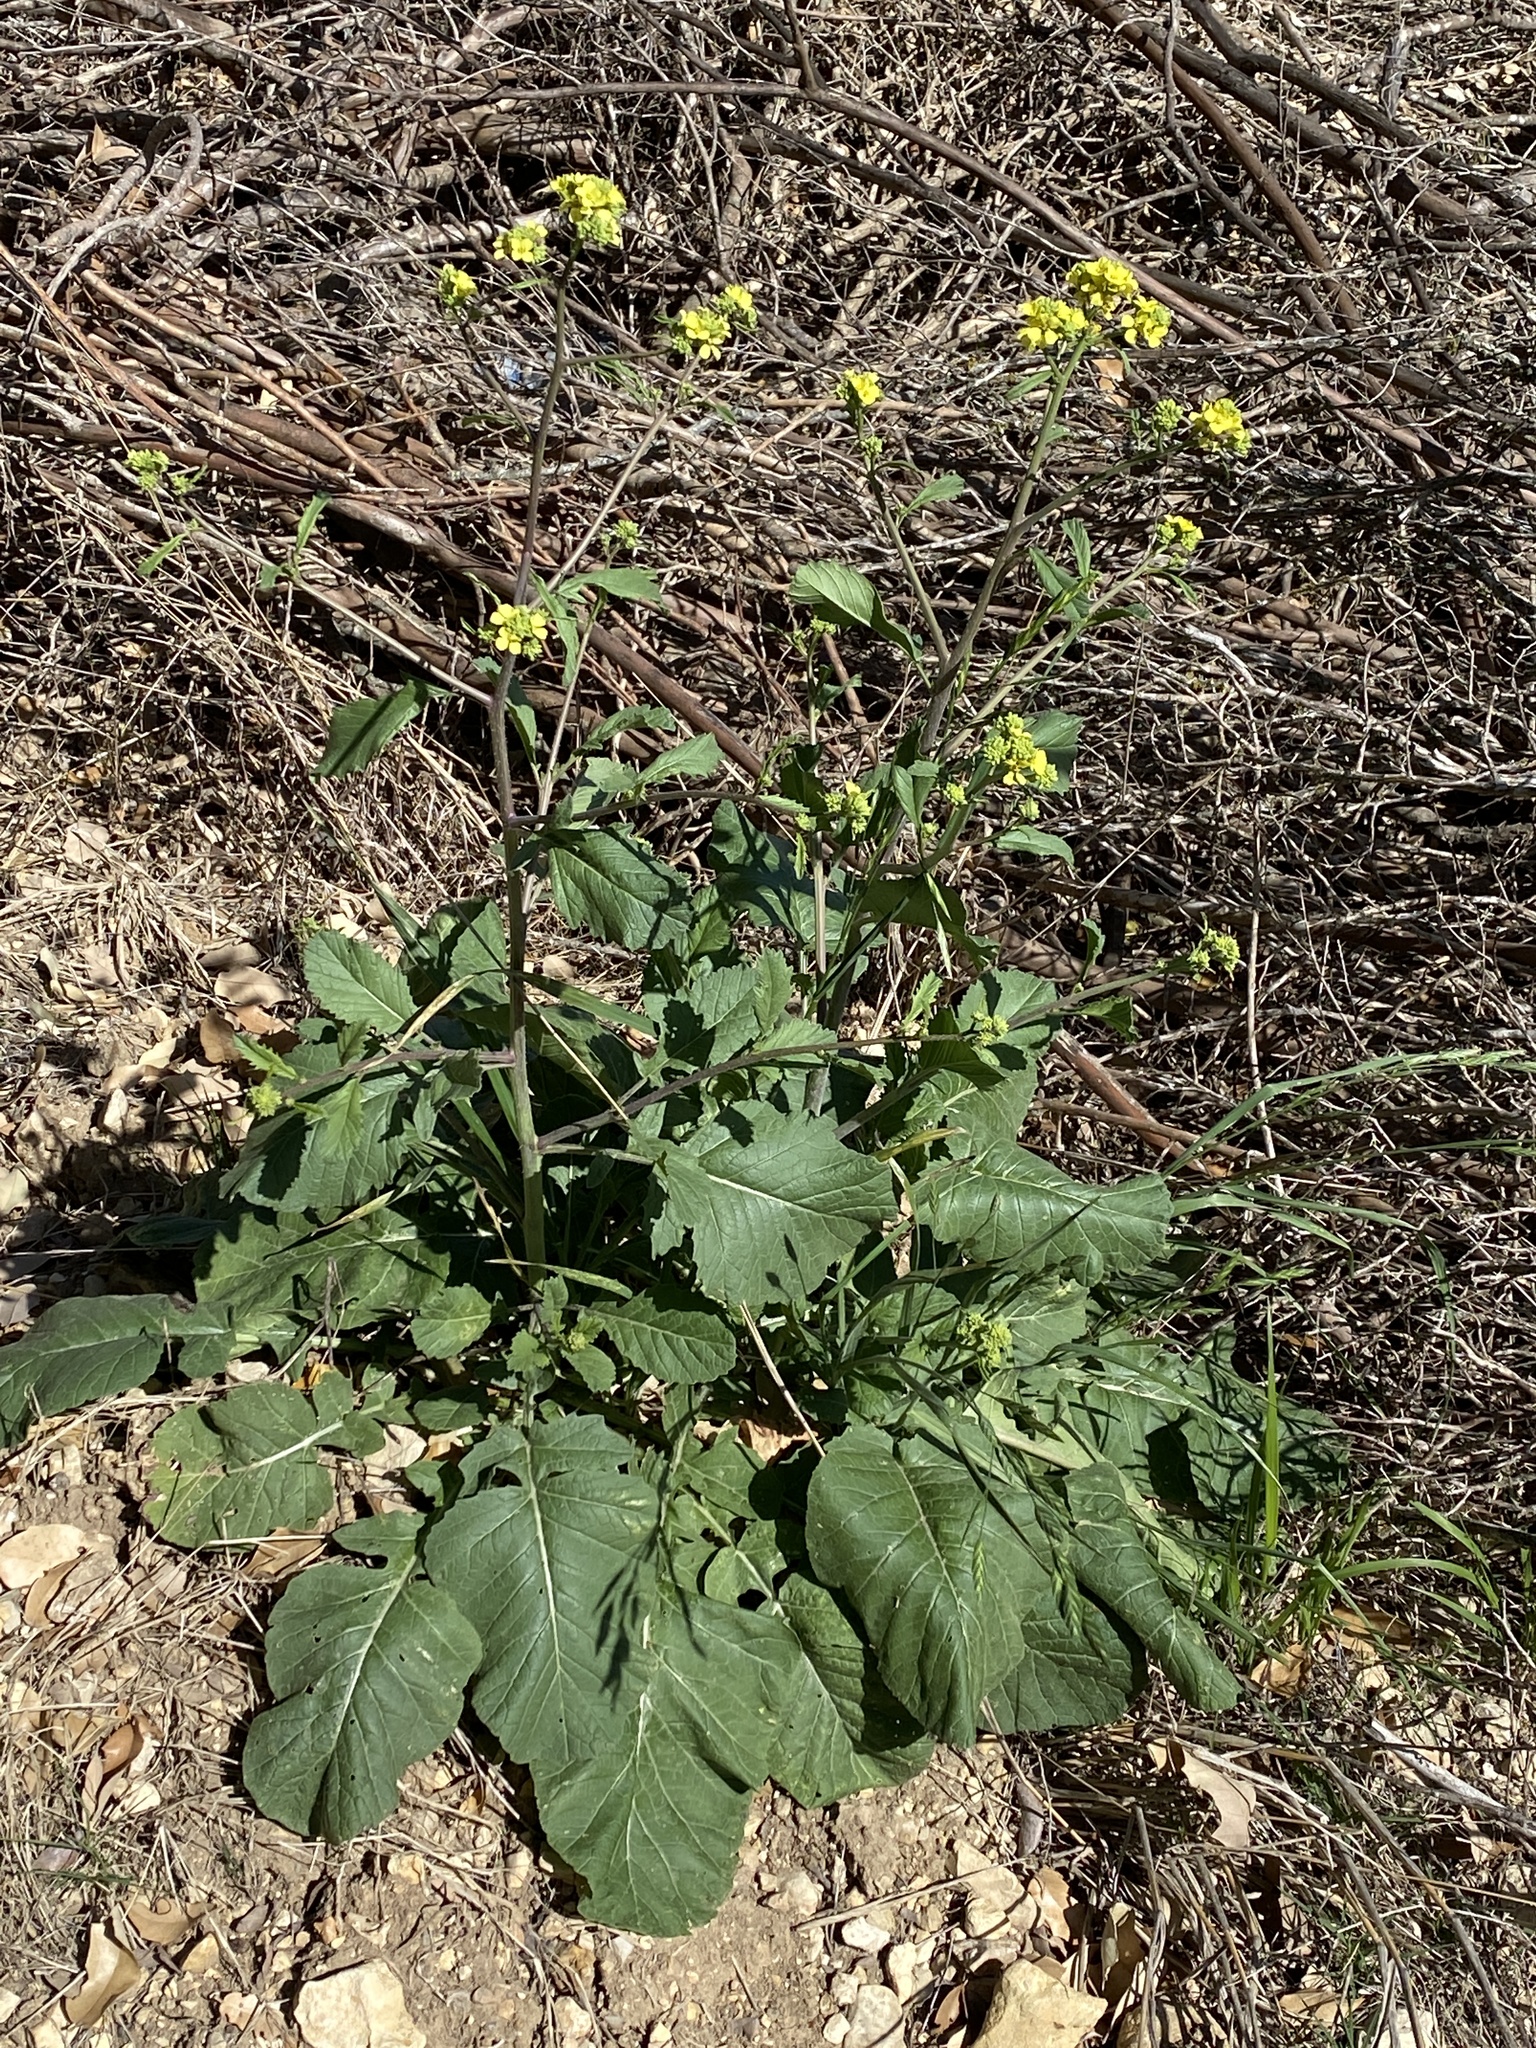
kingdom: Plantae
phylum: Tracheophyta
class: Magnoliopsida
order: Brassicales
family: Brassicaceae
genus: Rapistrum
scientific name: Rapistrum rugosum
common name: Annual bastardcabbage
